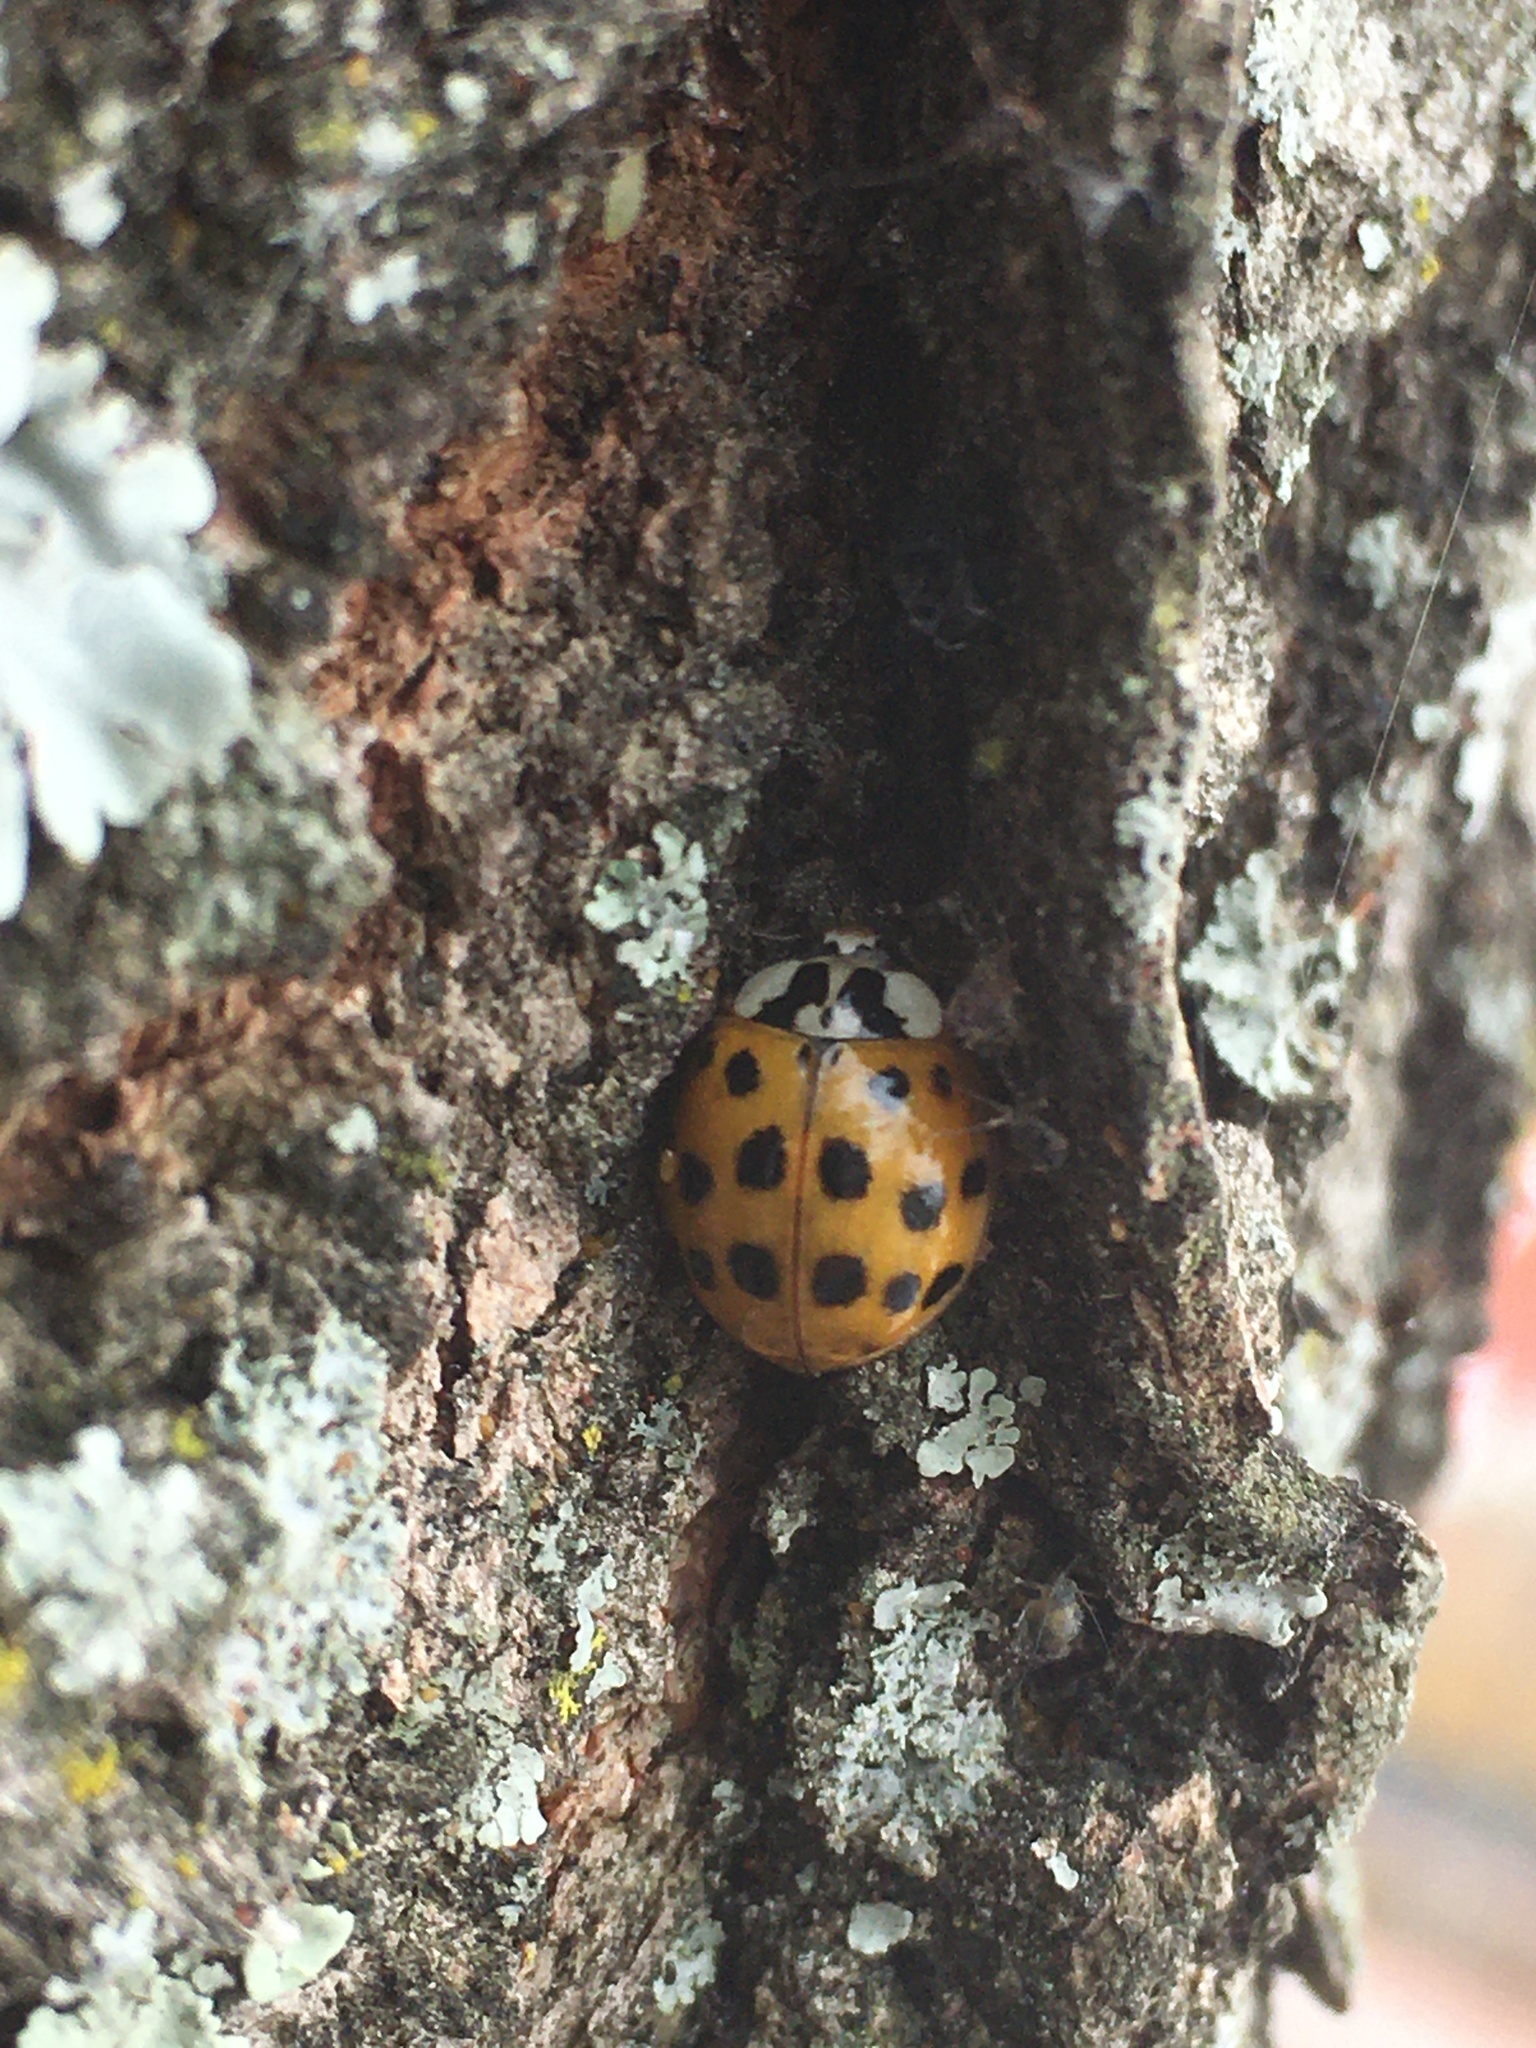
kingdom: Animalia
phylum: Arthropoda
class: Insecta
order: Coleoptera
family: Coccinellidae
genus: Harmonia
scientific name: Harmonia axyridis
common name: Harlequin ladybird
